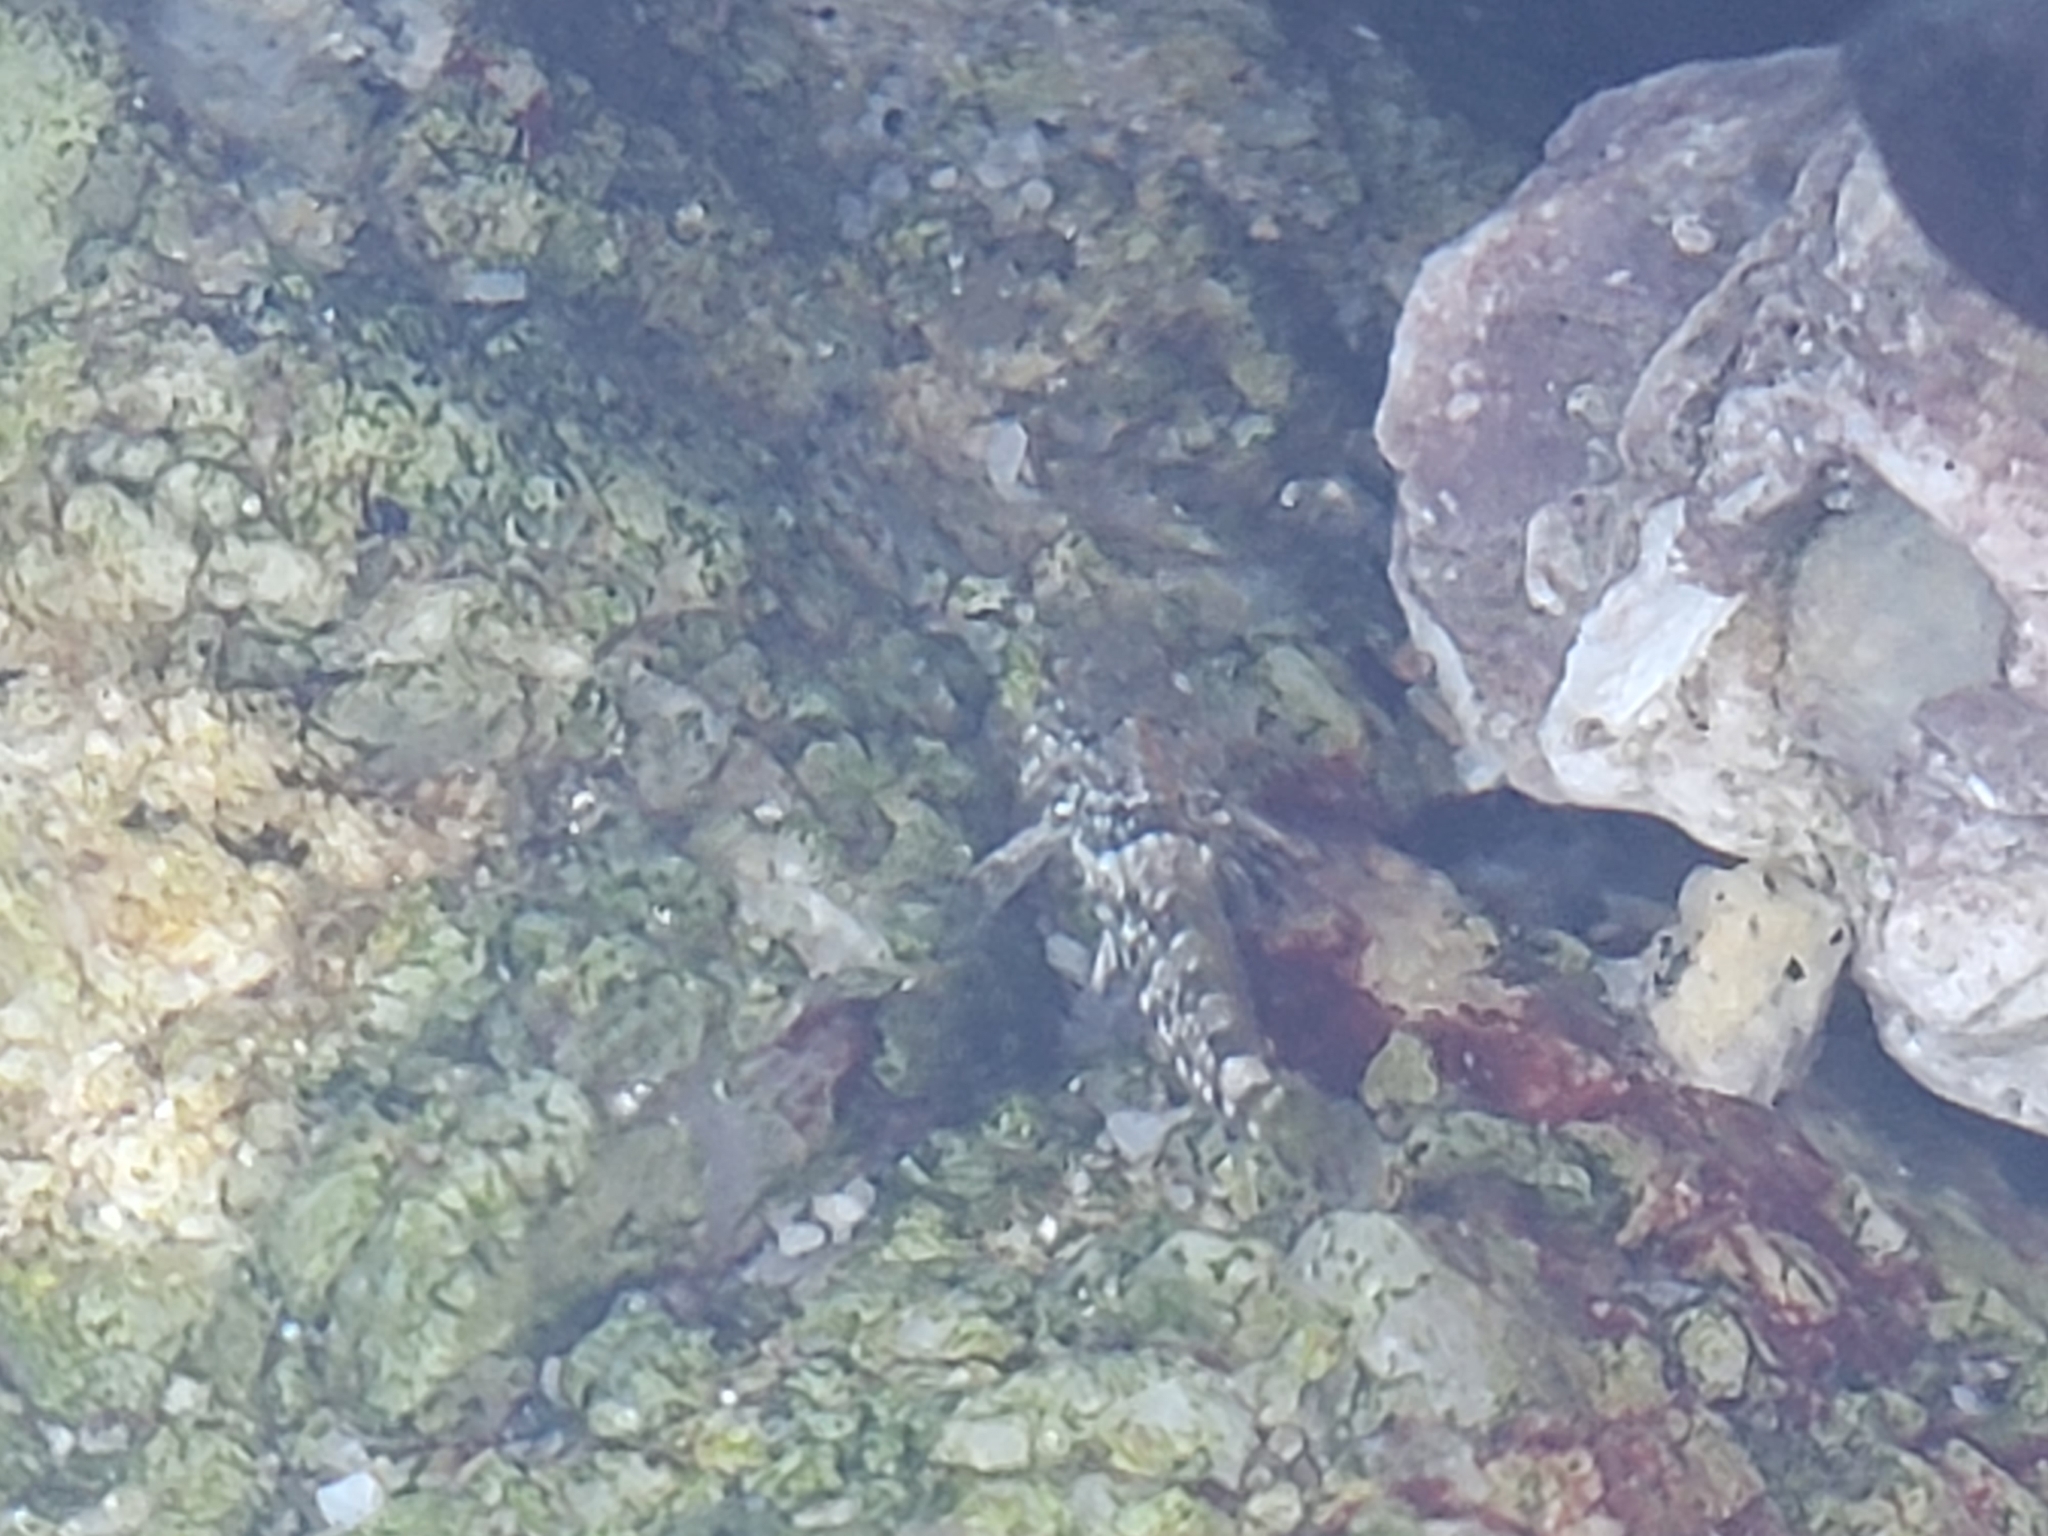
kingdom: Animalia
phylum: Chordata
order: Scorpaeniformes
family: Cottidae
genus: Clinocottus
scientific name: Clinocottus analis
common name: Woolly sculpin
